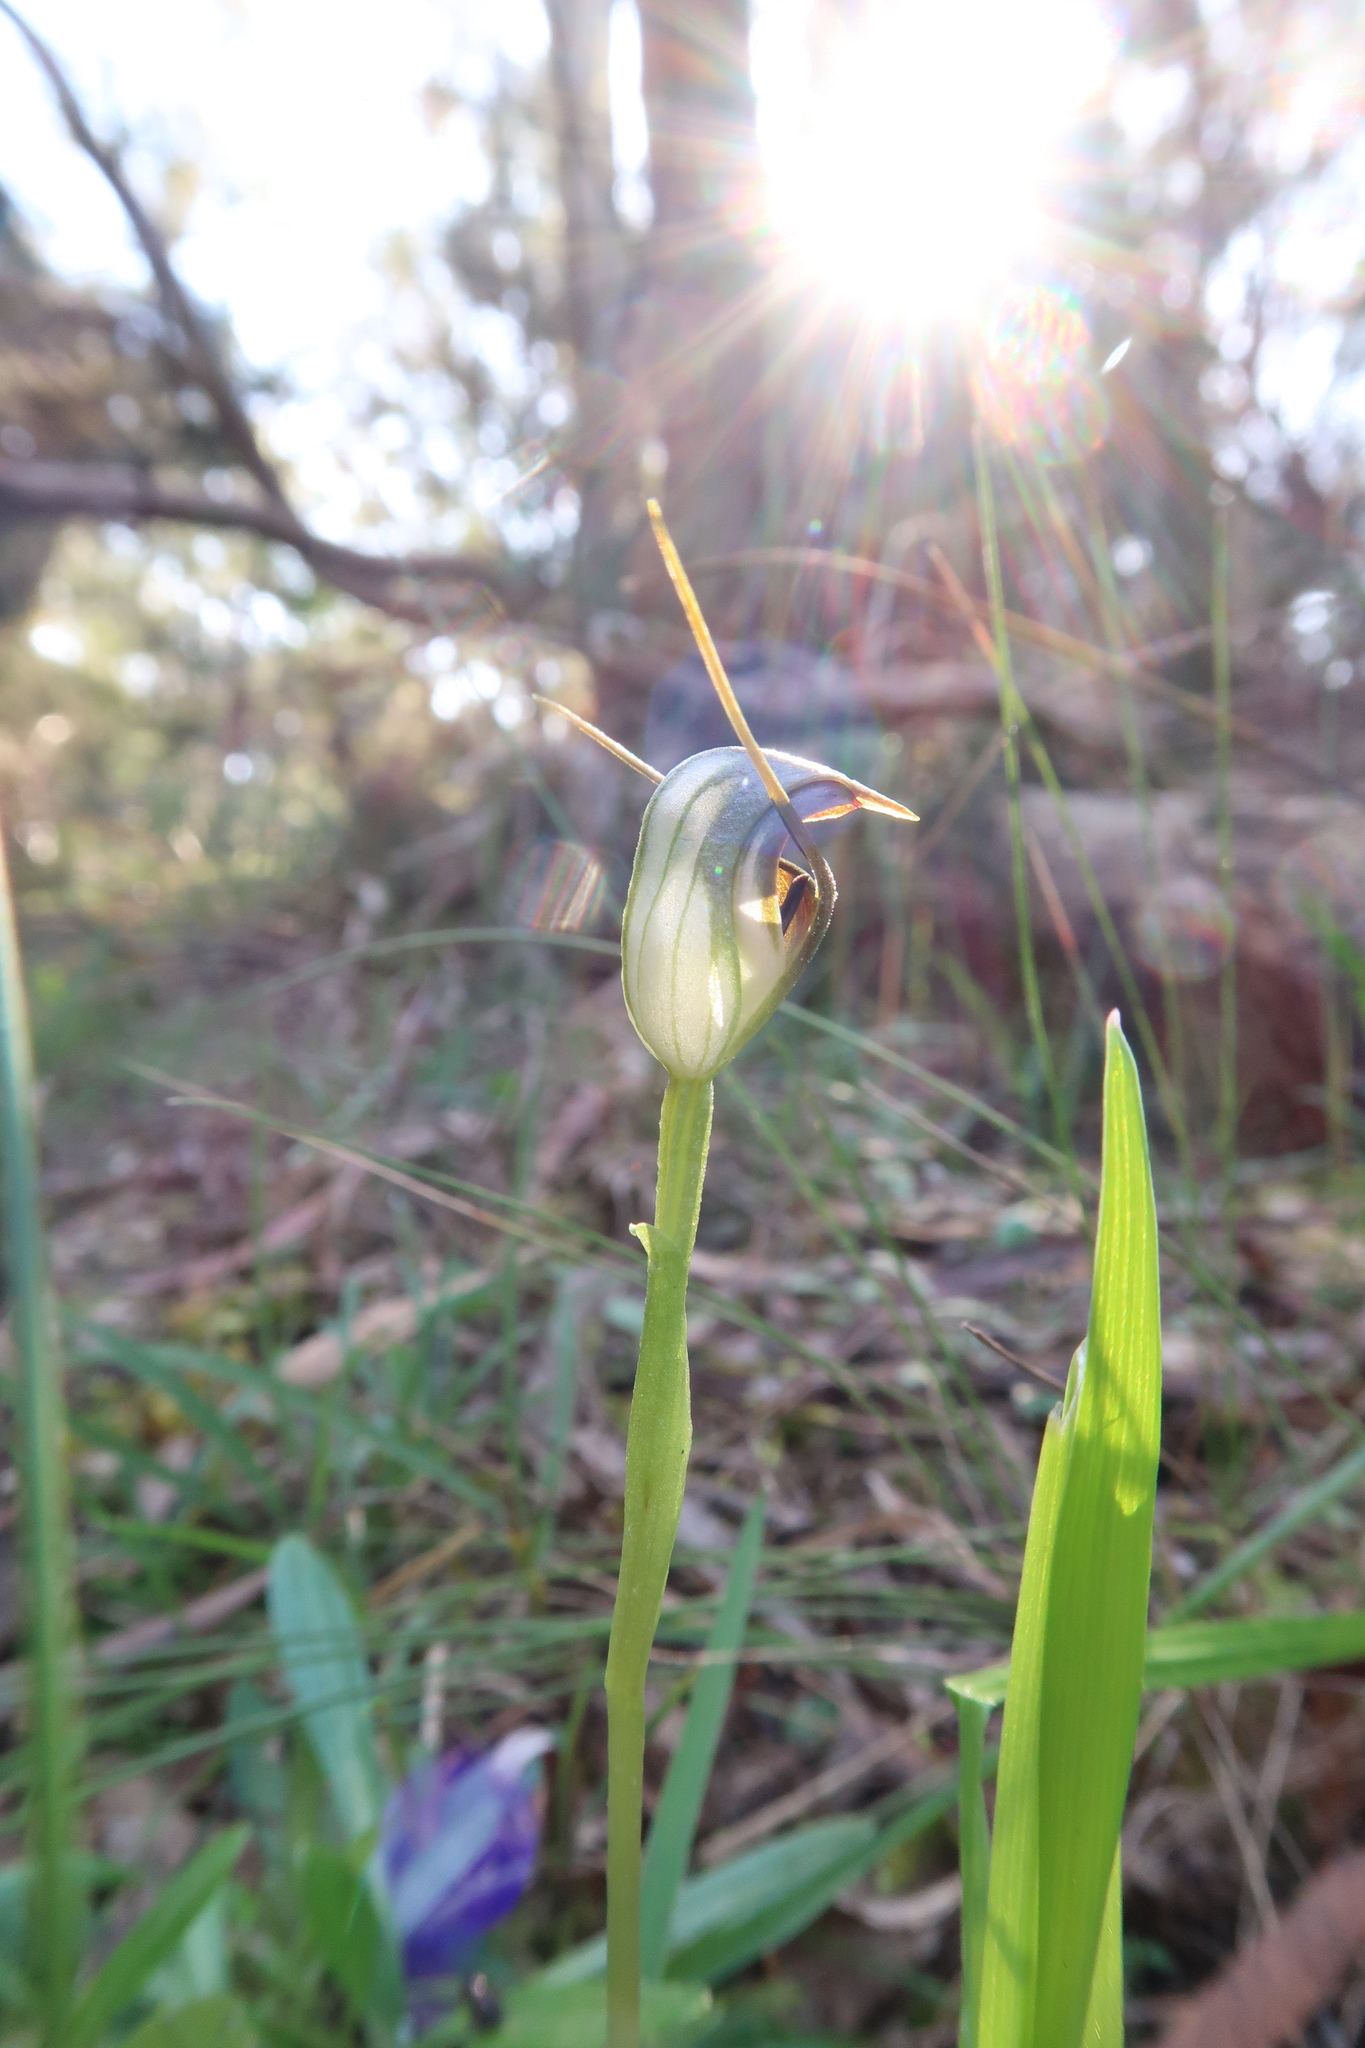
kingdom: Plantae
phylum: Tracheophyta
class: Liliopsida
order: Asparagales
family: Orchidaceae
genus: Pterostylis
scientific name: Pterostylis pedunculata
